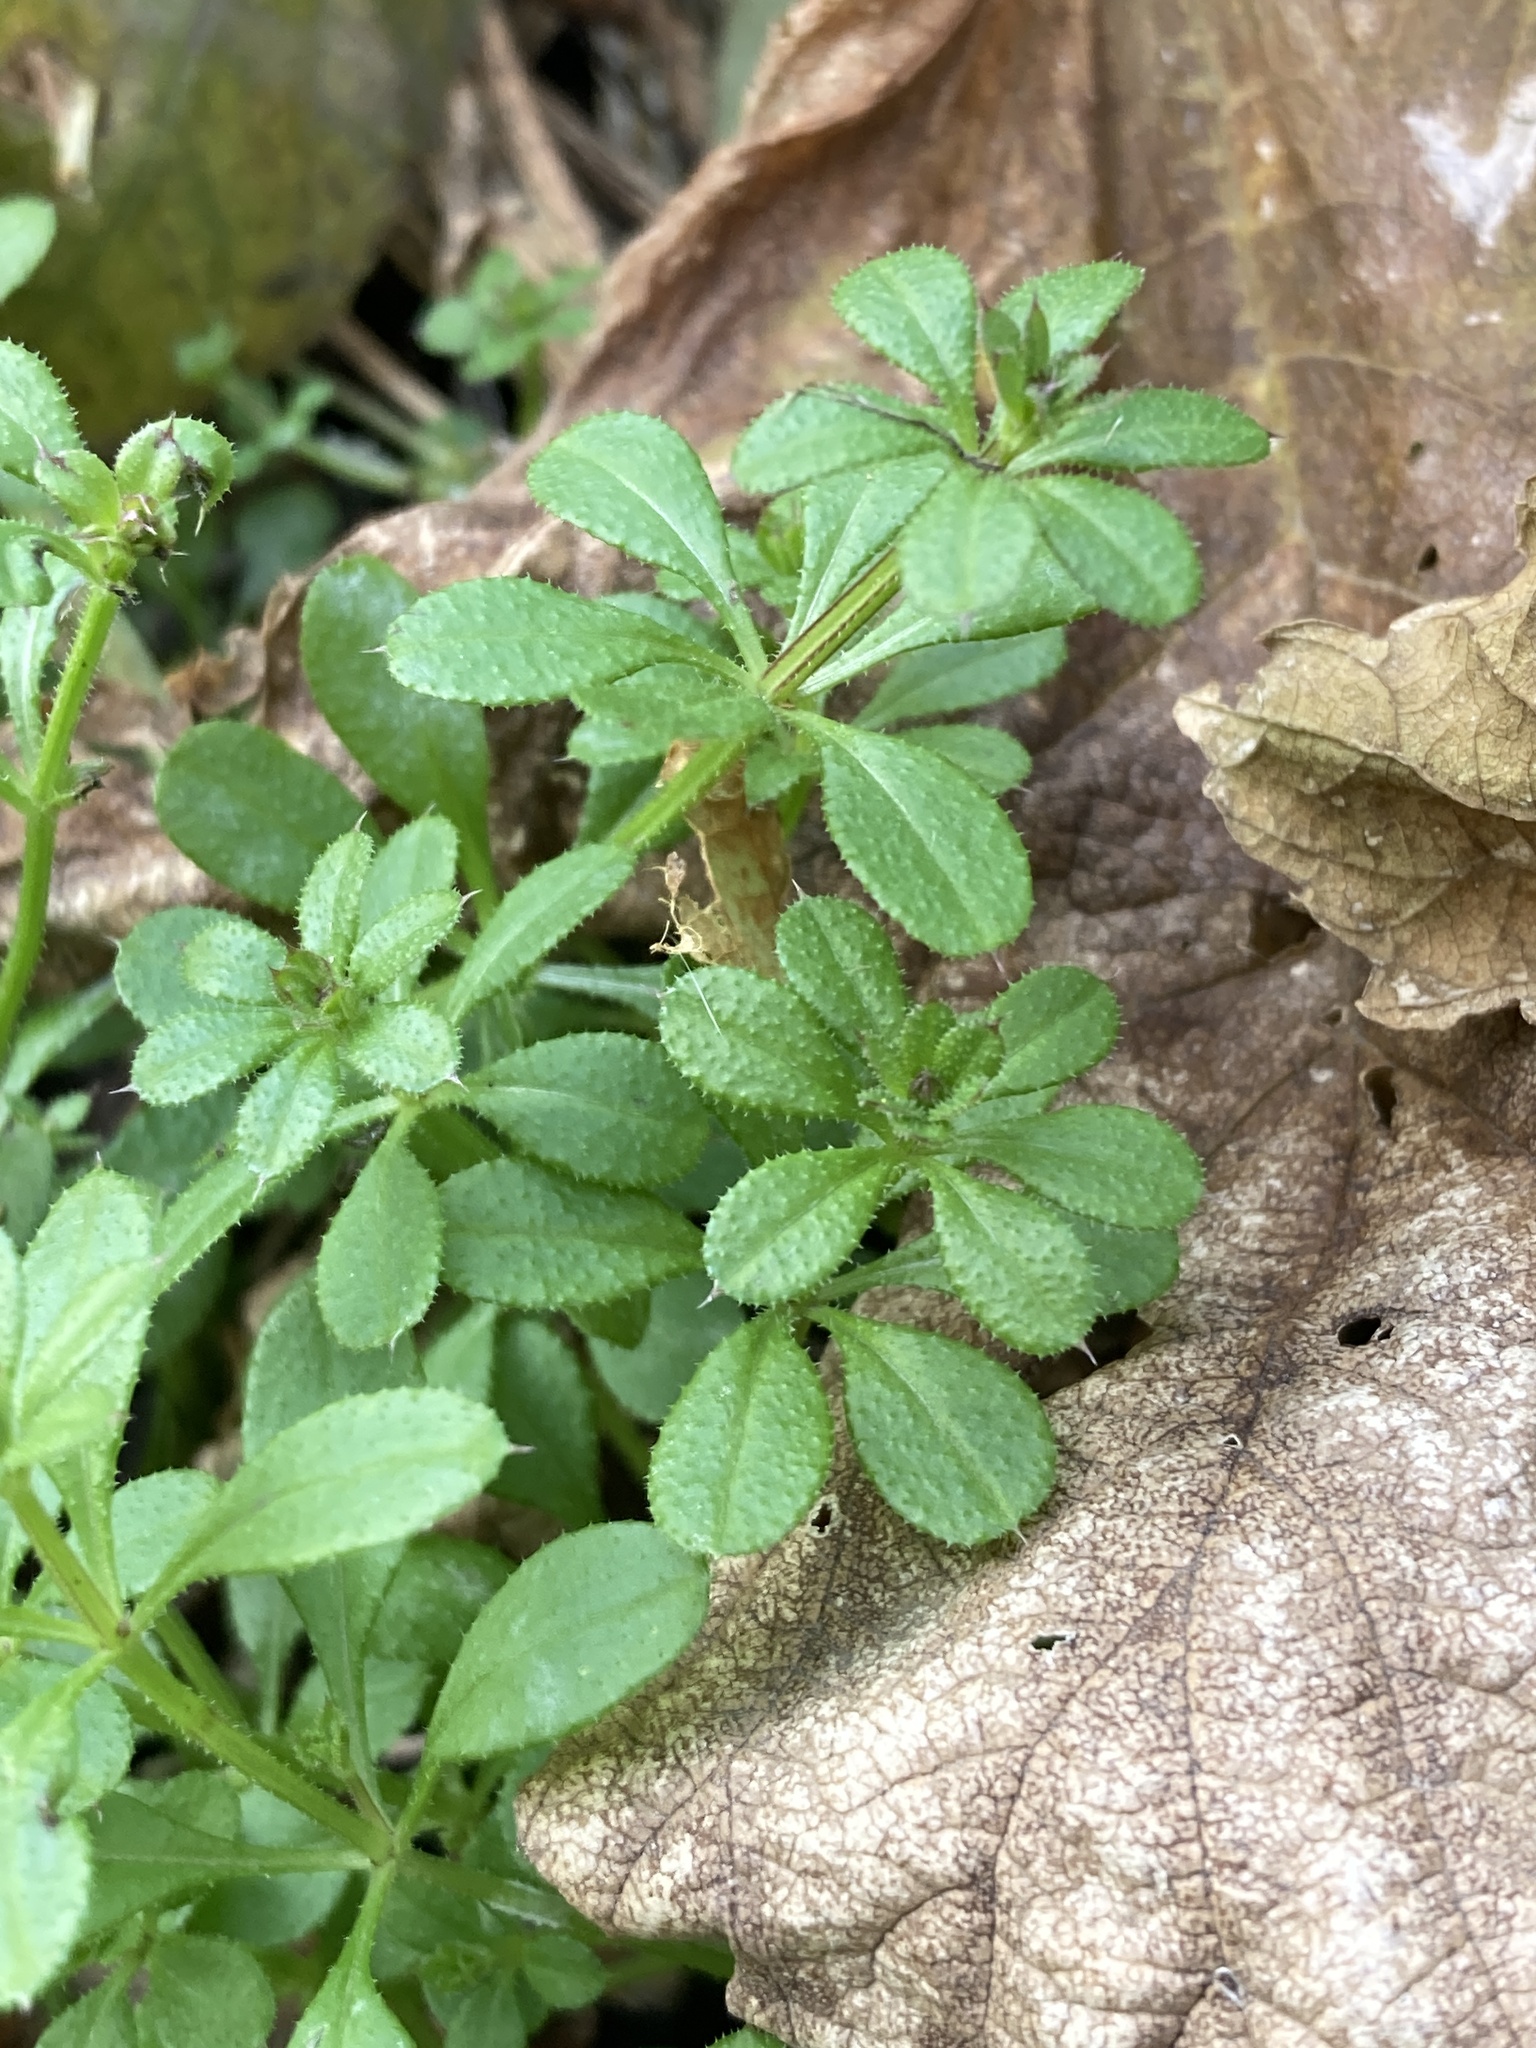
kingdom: Plantae
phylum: Tracheophyta
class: Magnoliopsida
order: Gentianales
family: Rubiaceae
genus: Galium
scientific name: Galium aparine
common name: Cleavers
